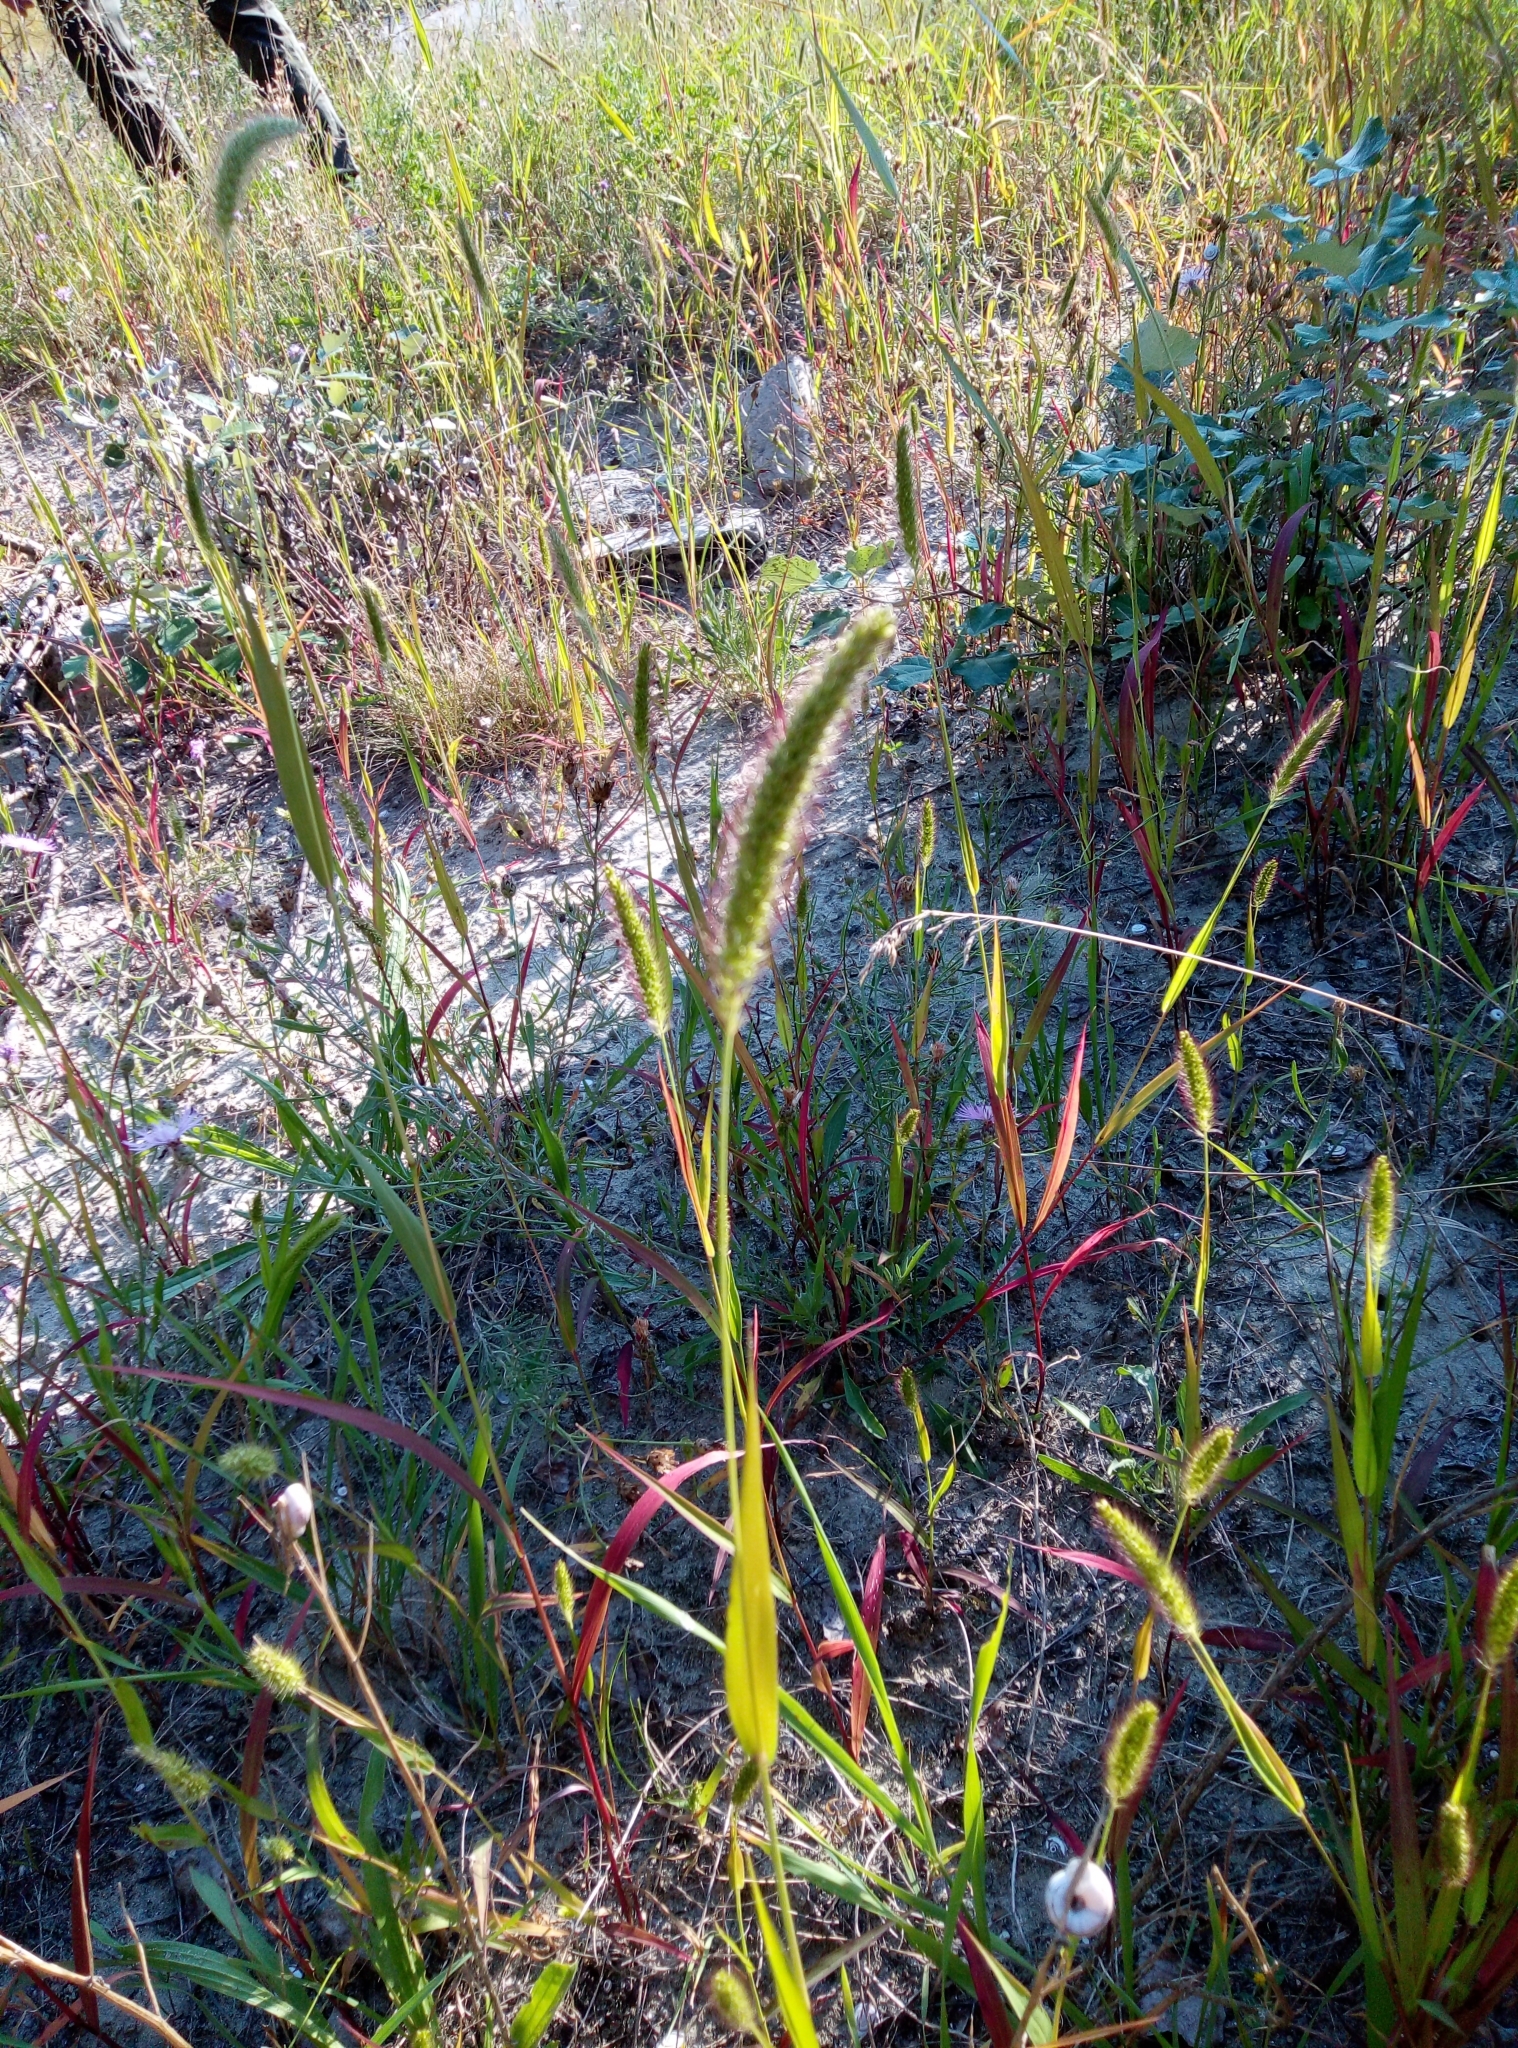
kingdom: Plantae
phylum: Tracheophyta
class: Liliopsida
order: Poales
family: Poaceae
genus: Setaria
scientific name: Setaria viridis
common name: Green bristlegrass
